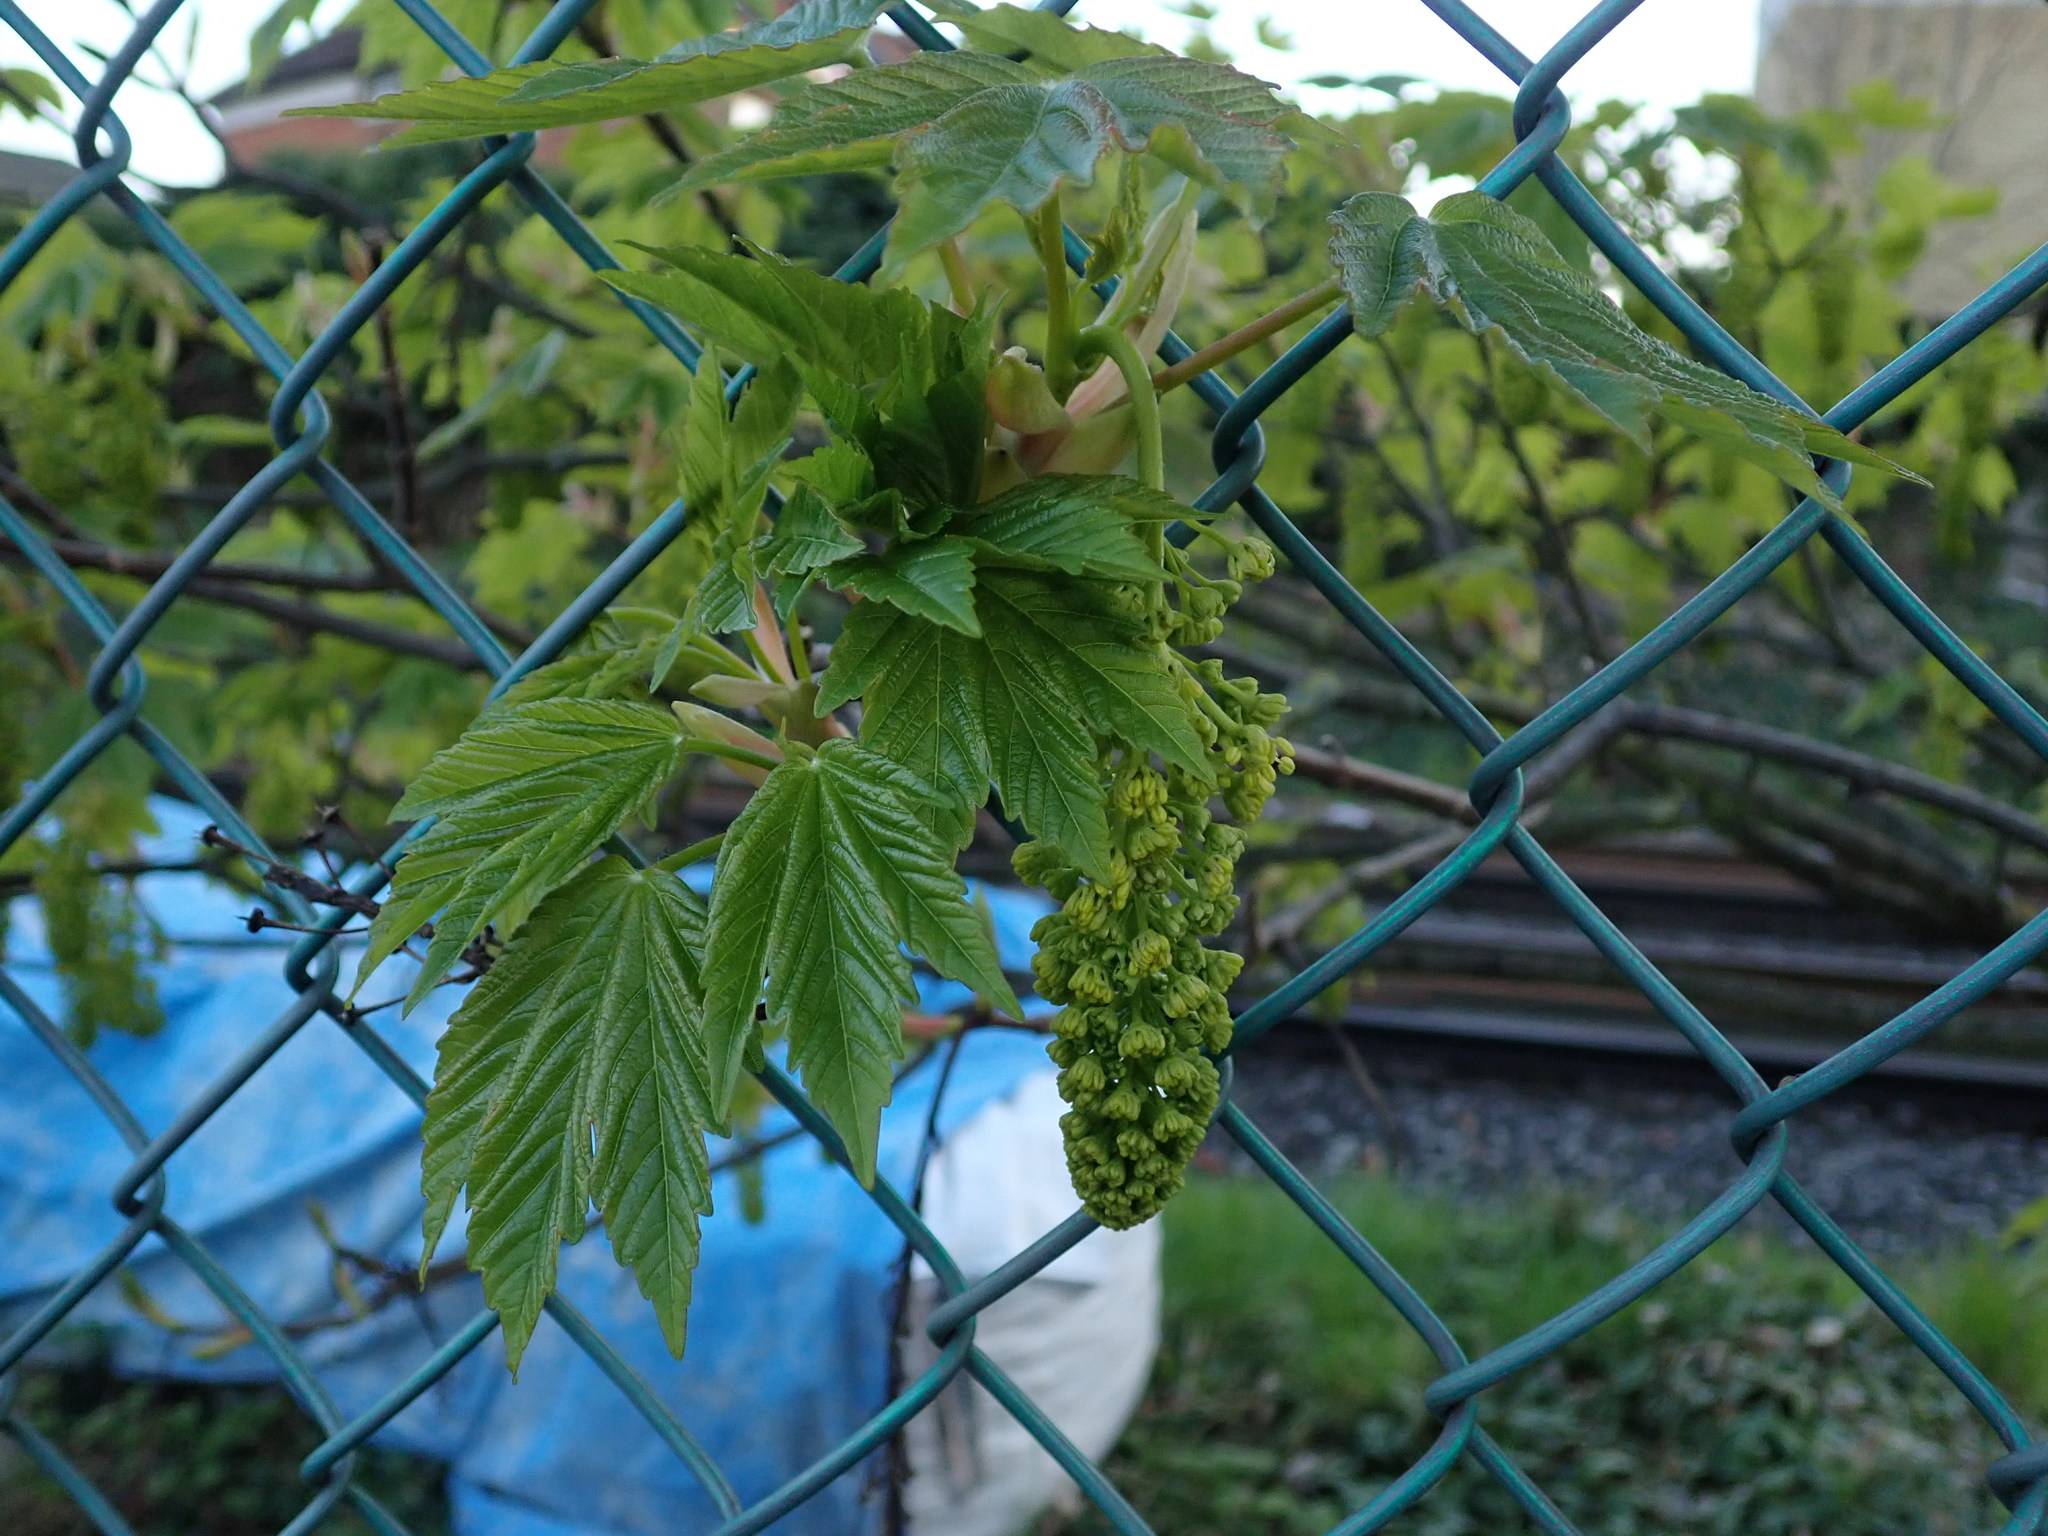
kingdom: Plantae
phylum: Tracheophyta
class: Magnoliopsida
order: Sapindales
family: Sapindaceae
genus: Acer
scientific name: Acer pseudoplatanus
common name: Sycamore
